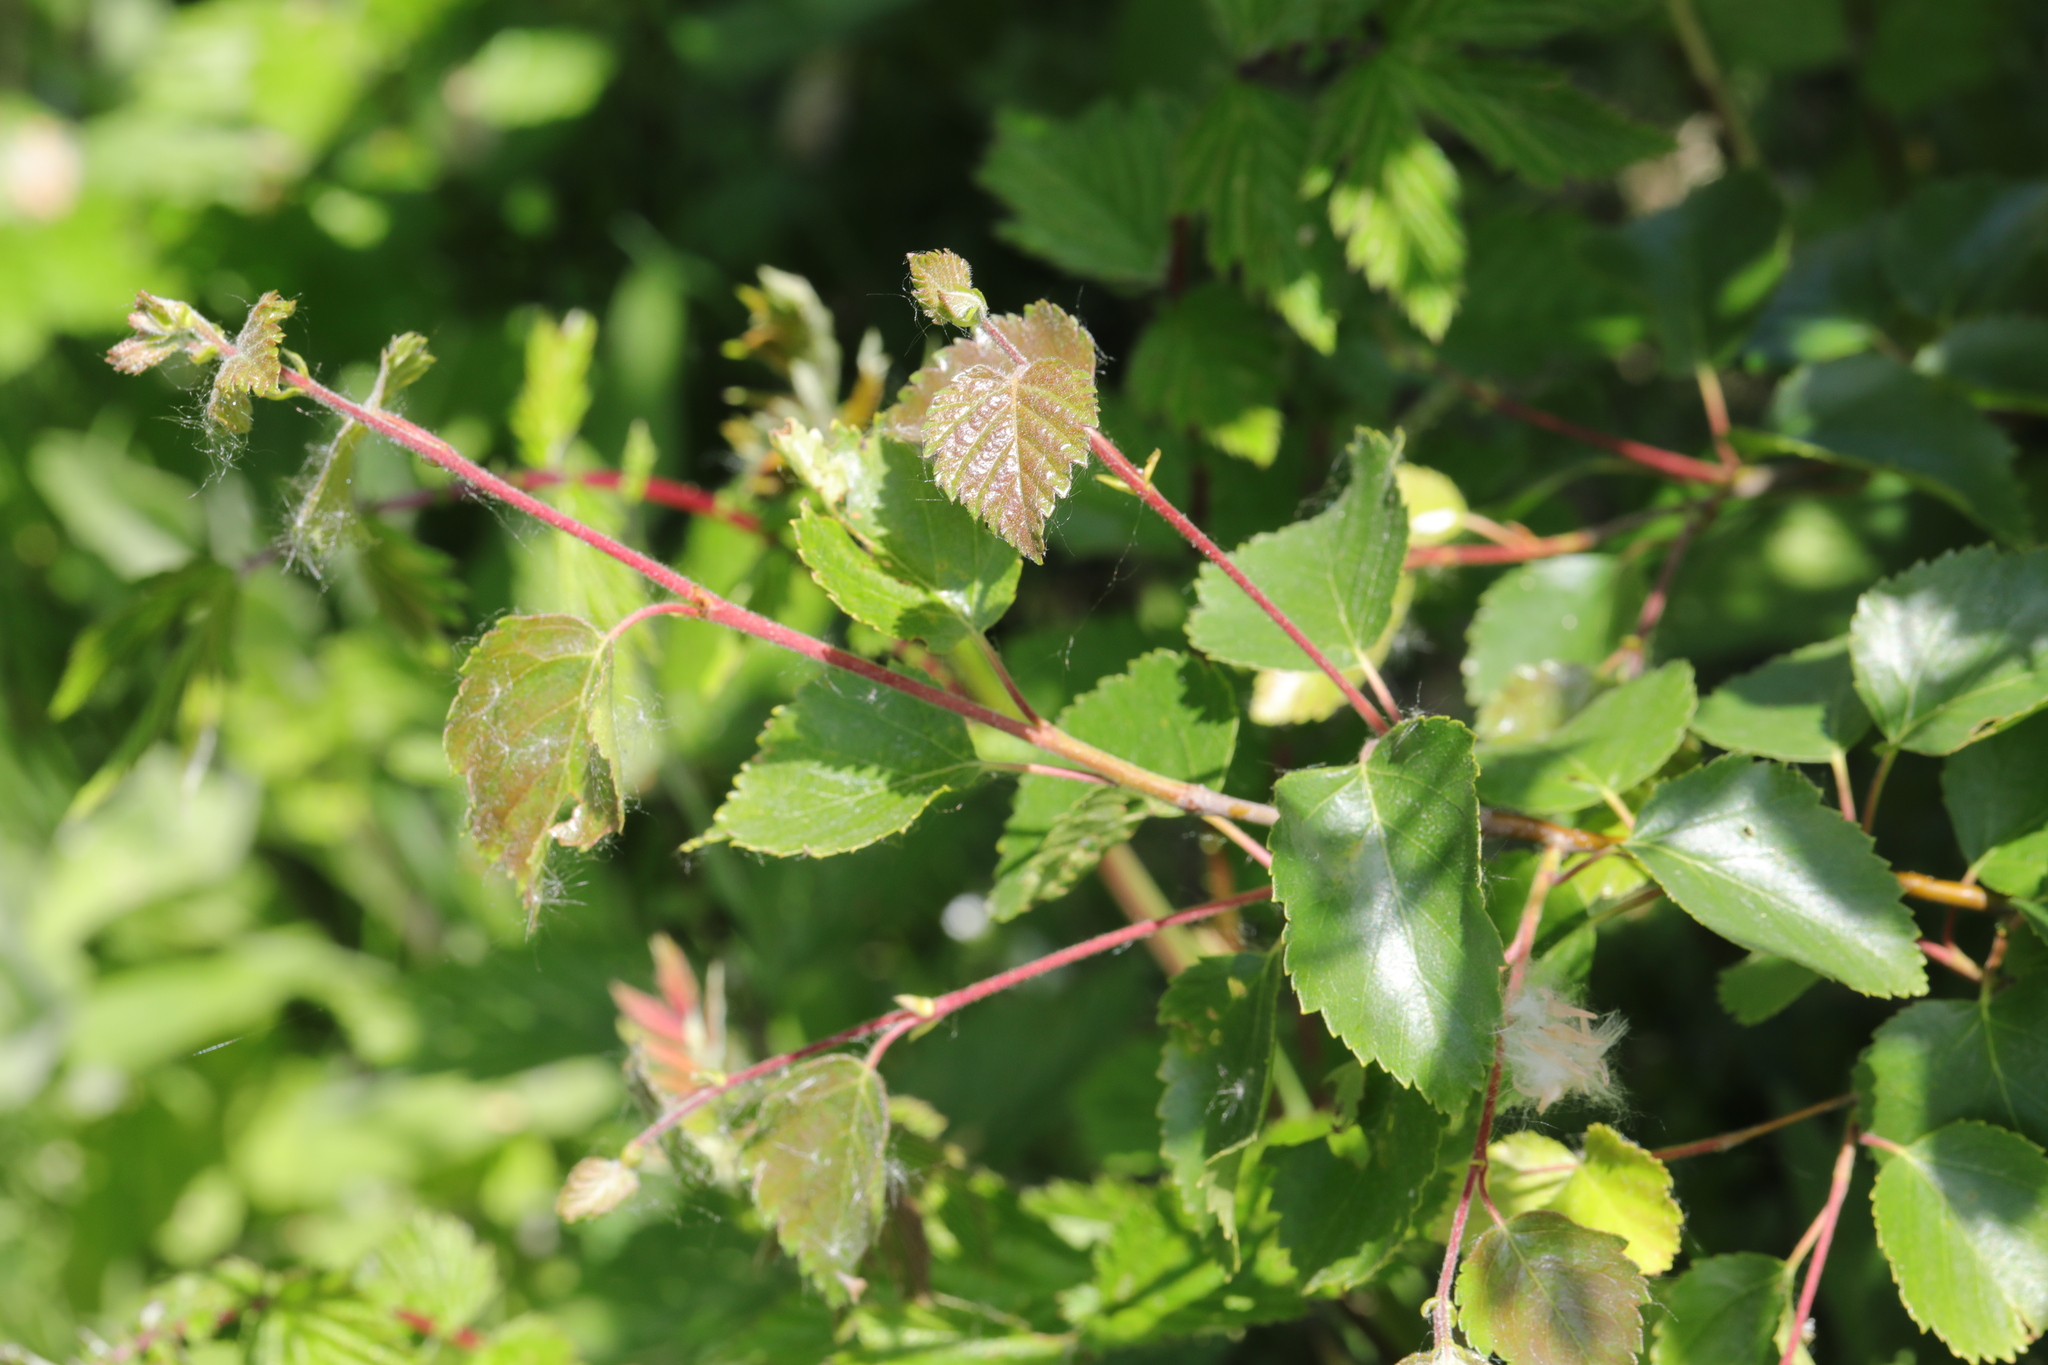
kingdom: Plantae
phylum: Tracheophyta
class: Magnoliopsida
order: Fagales
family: Betulaceae
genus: Betula
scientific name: Betula pendula
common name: Silver birch
